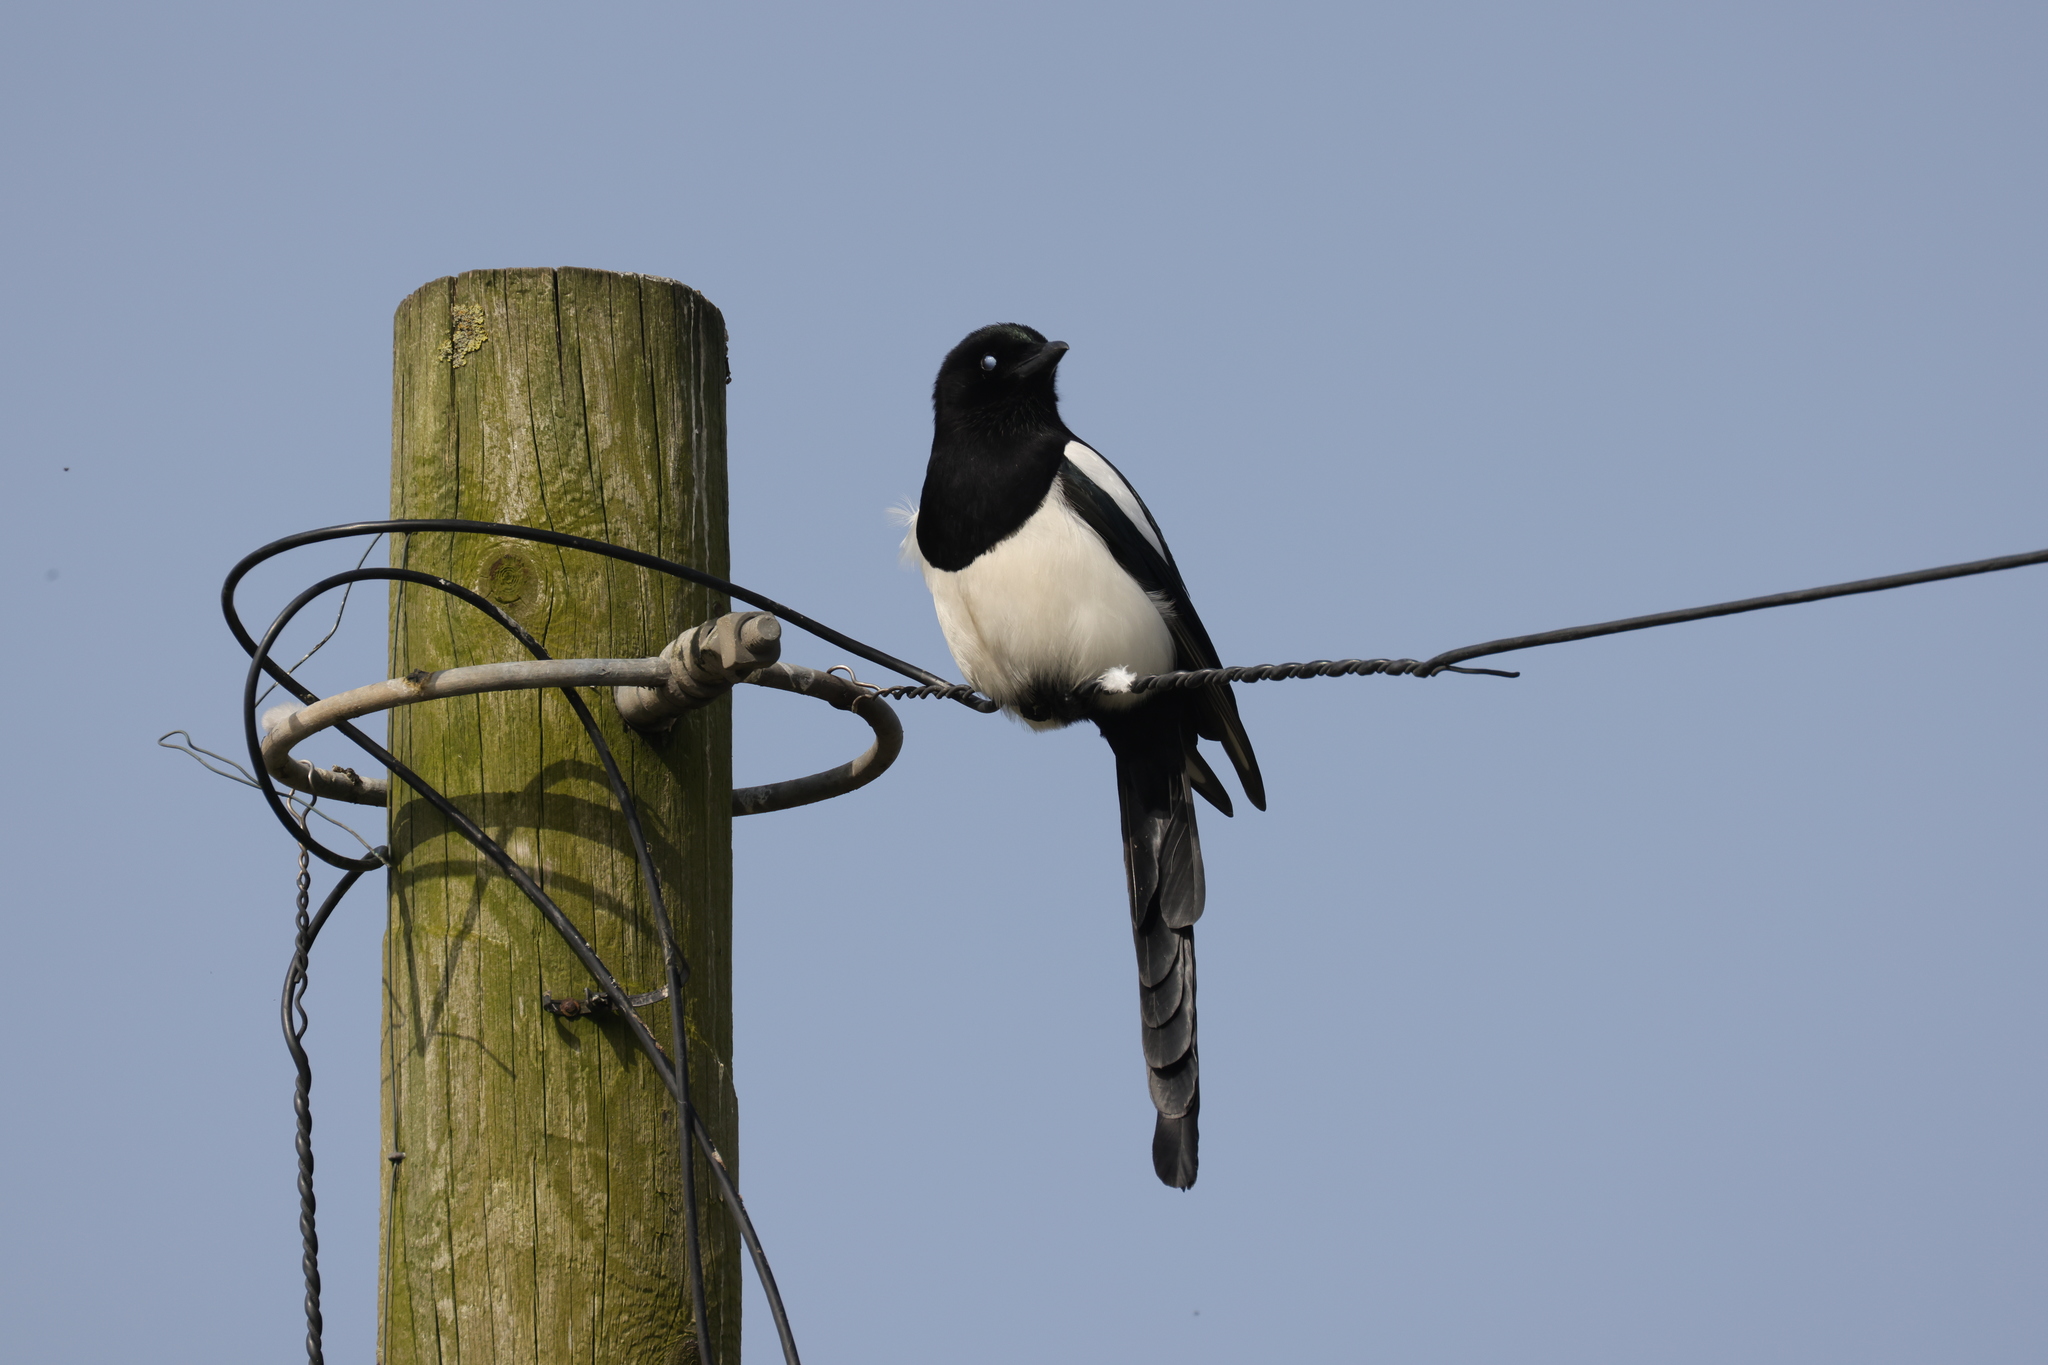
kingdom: Animalia
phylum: Chordata
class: Aves
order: Passeriformes
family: Corvidae
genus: Pica
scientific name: Pica pica
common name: Eurasian magpie
